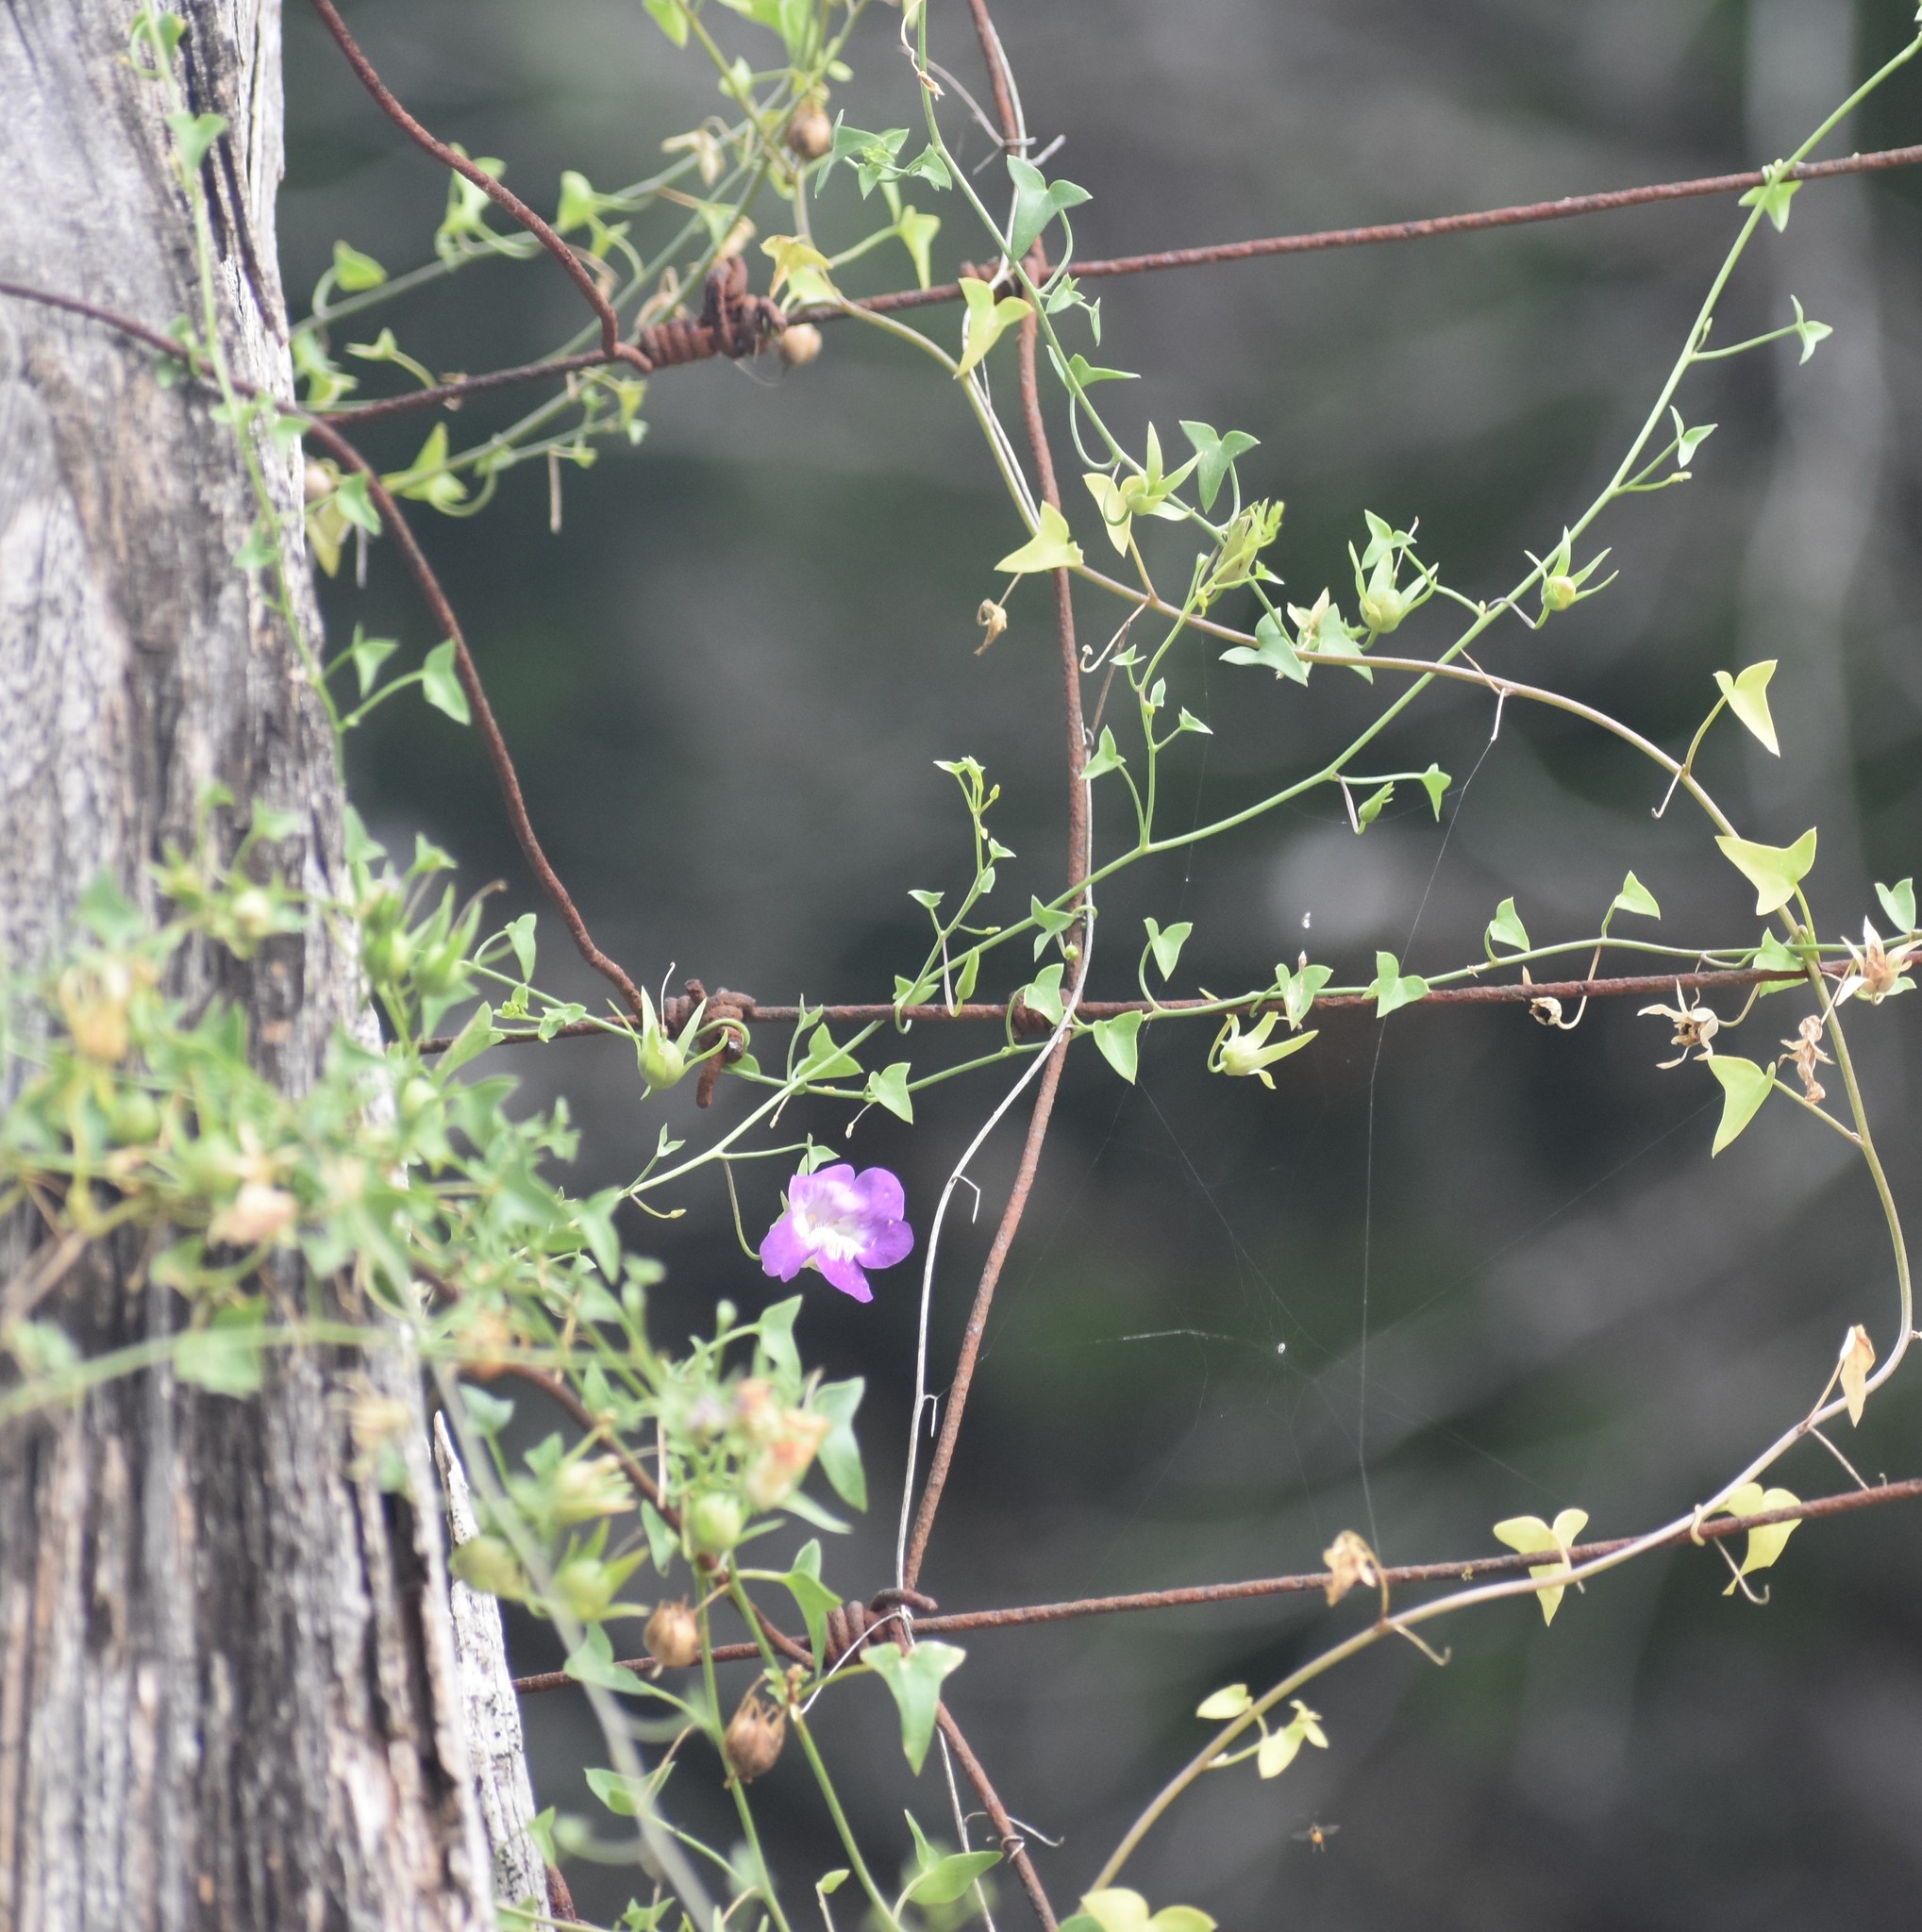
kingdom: Plantae
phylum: Tracheophyta
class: Magnoliopsida
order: Lamiales
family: Plantaginaceae
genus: Maurandella
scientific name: Maurandella antirrhiniflora
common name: Violet twining-snapdragon
